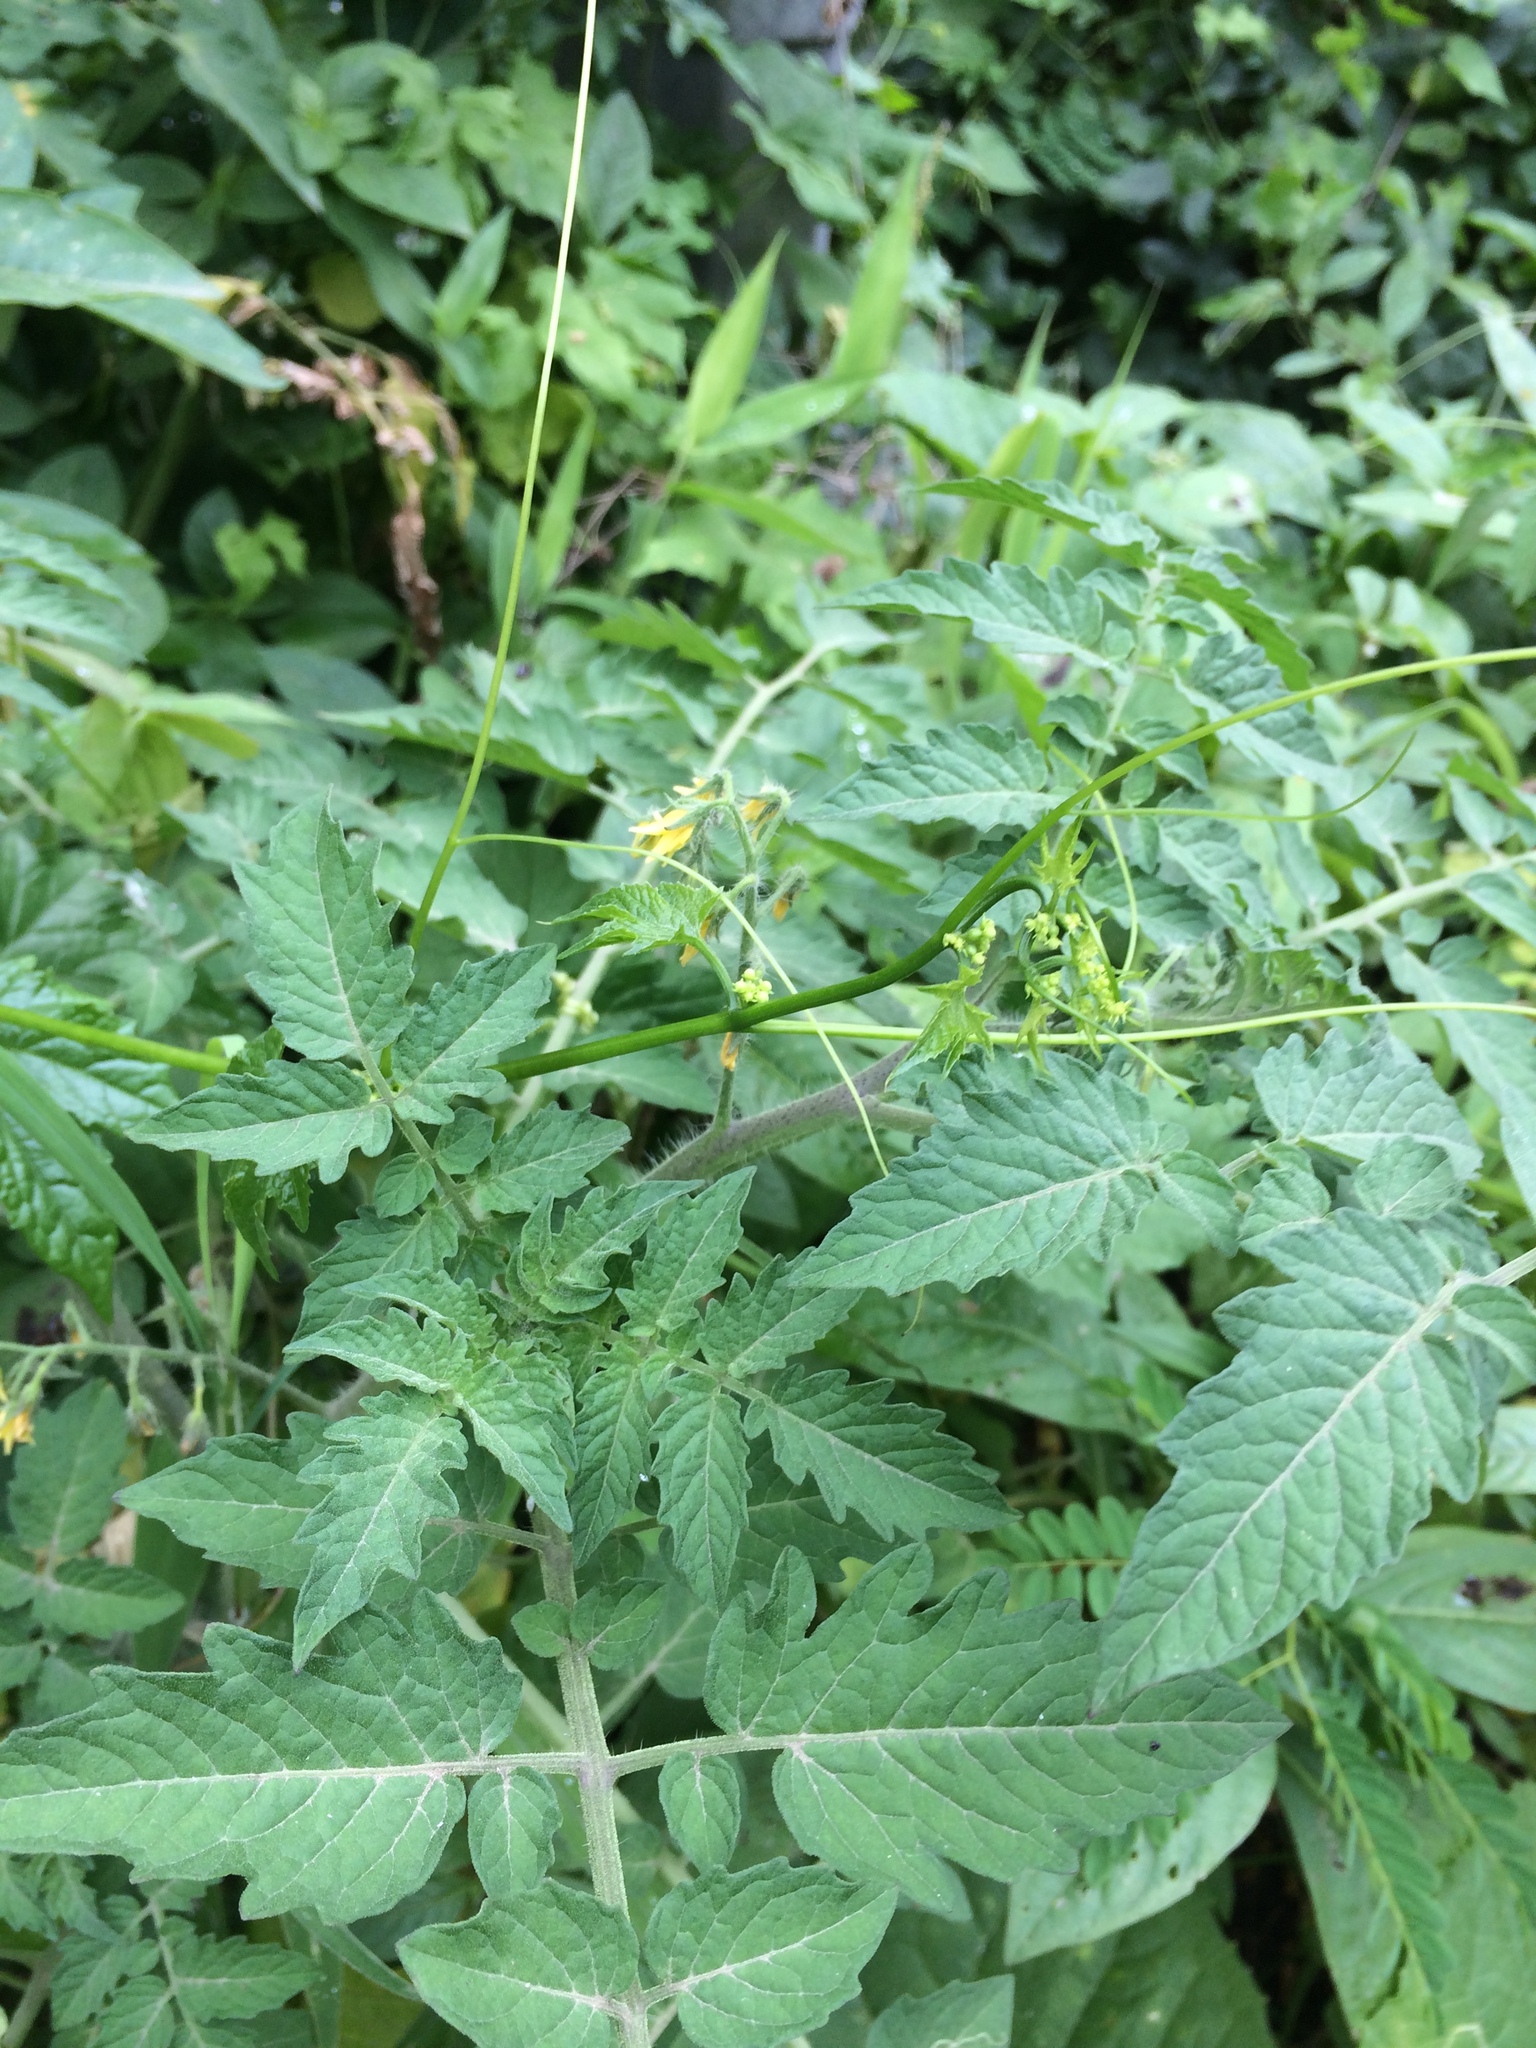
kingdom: Plantae
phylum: Tracheophyta
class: Magnoliopsida
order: Solanales
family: Solanaceae
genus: Solanum
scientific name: Solanum lycopersicum
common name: Garden tomato
